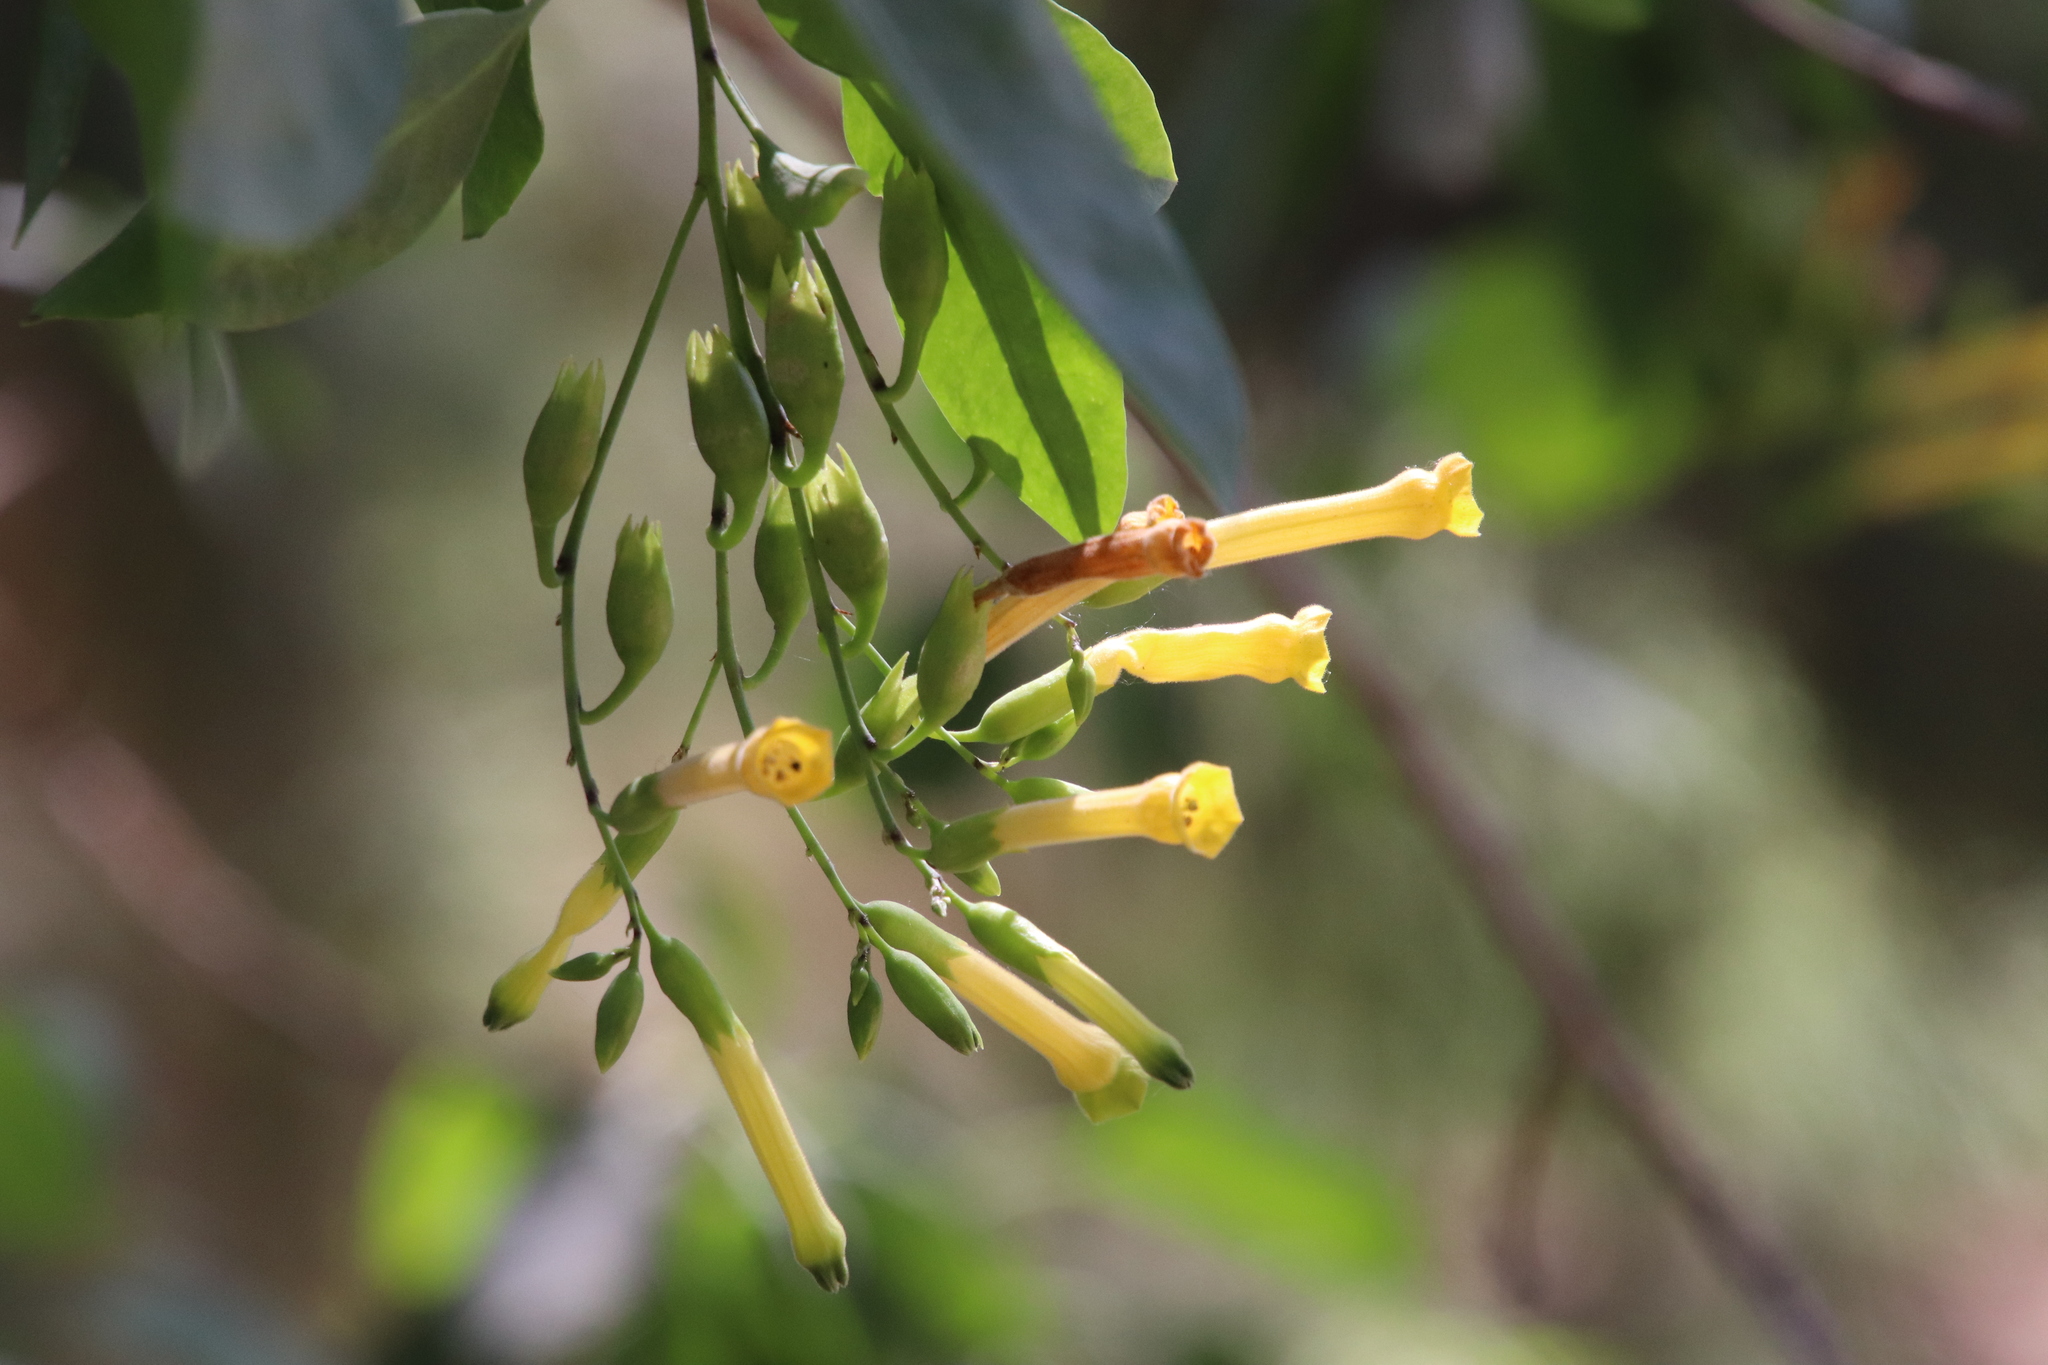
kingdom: Plantae
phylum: Tracheophyta
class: Magnoliopsida
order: Solanales
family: Solanaceae
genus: Nicotiana
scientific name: Nicotiana glauca
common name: Tree tobacco
